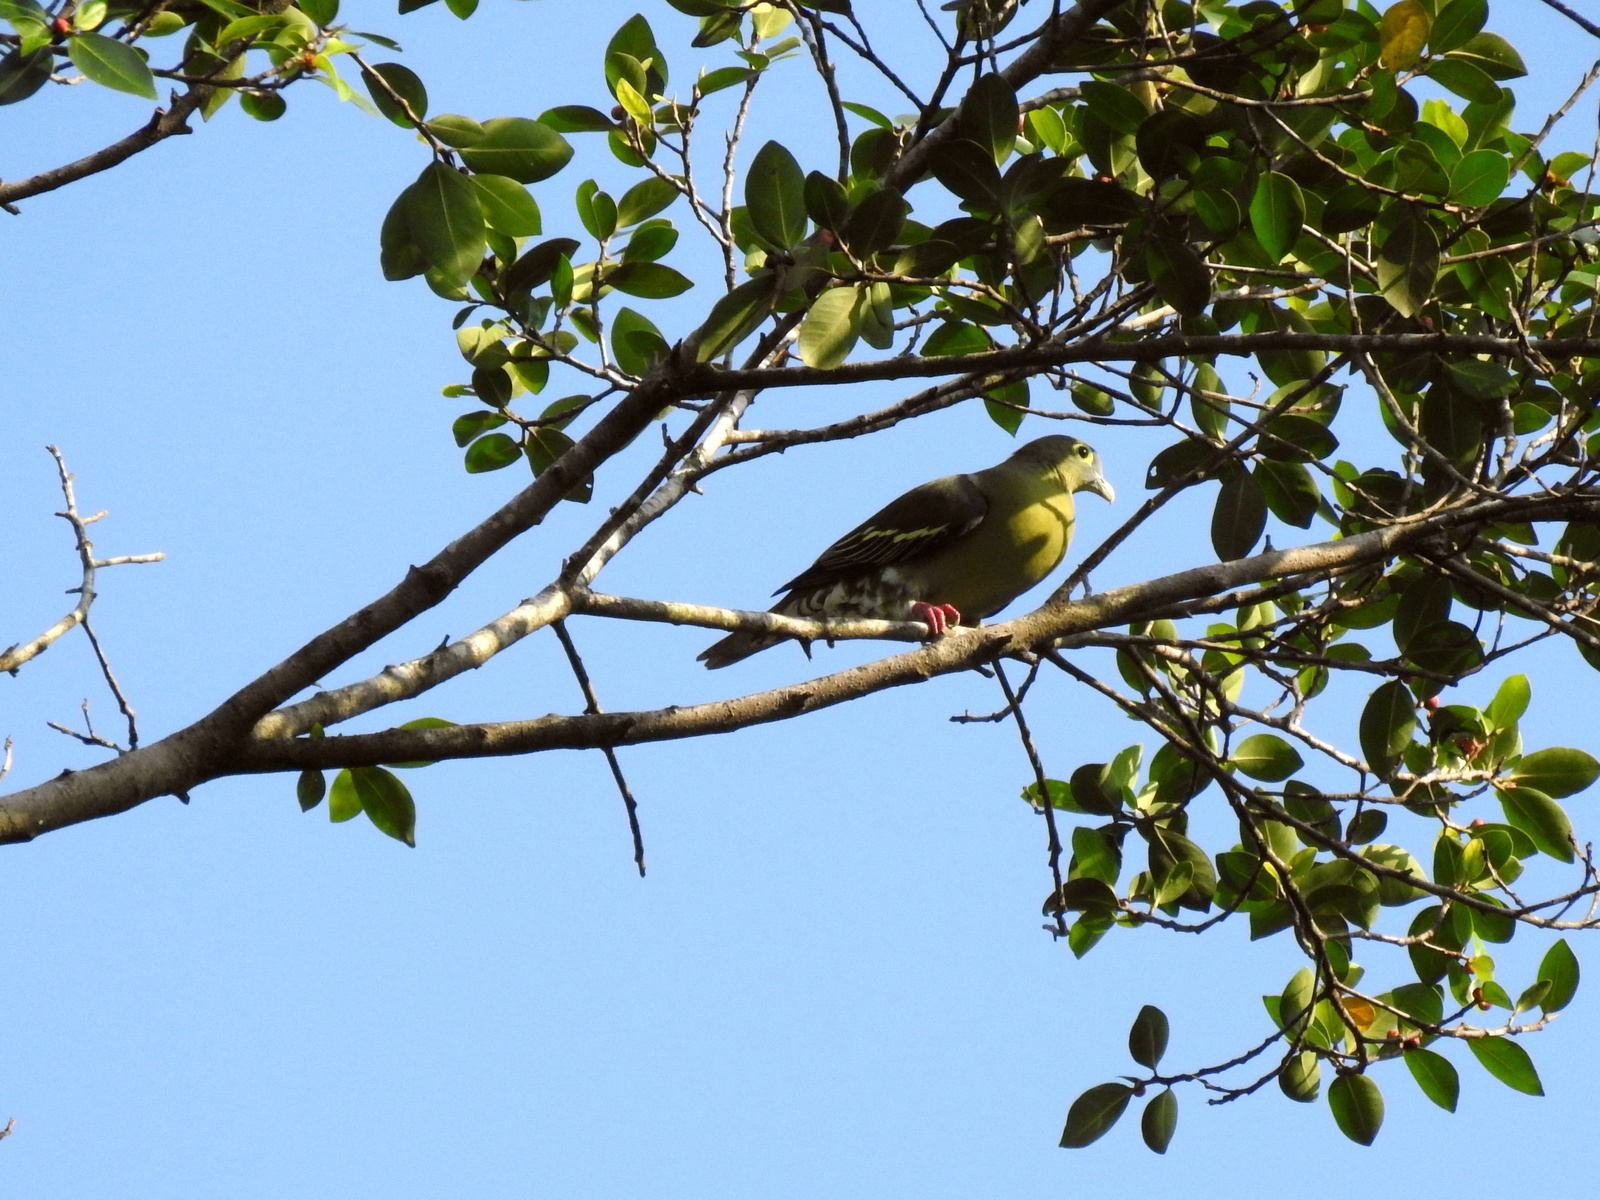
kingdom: Animalia
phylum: Chordata
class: Aves
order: Columbiformes
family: Columbidae
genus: Treron
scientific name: Treron griseicauda
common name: Grey-cheeked green pigeon
